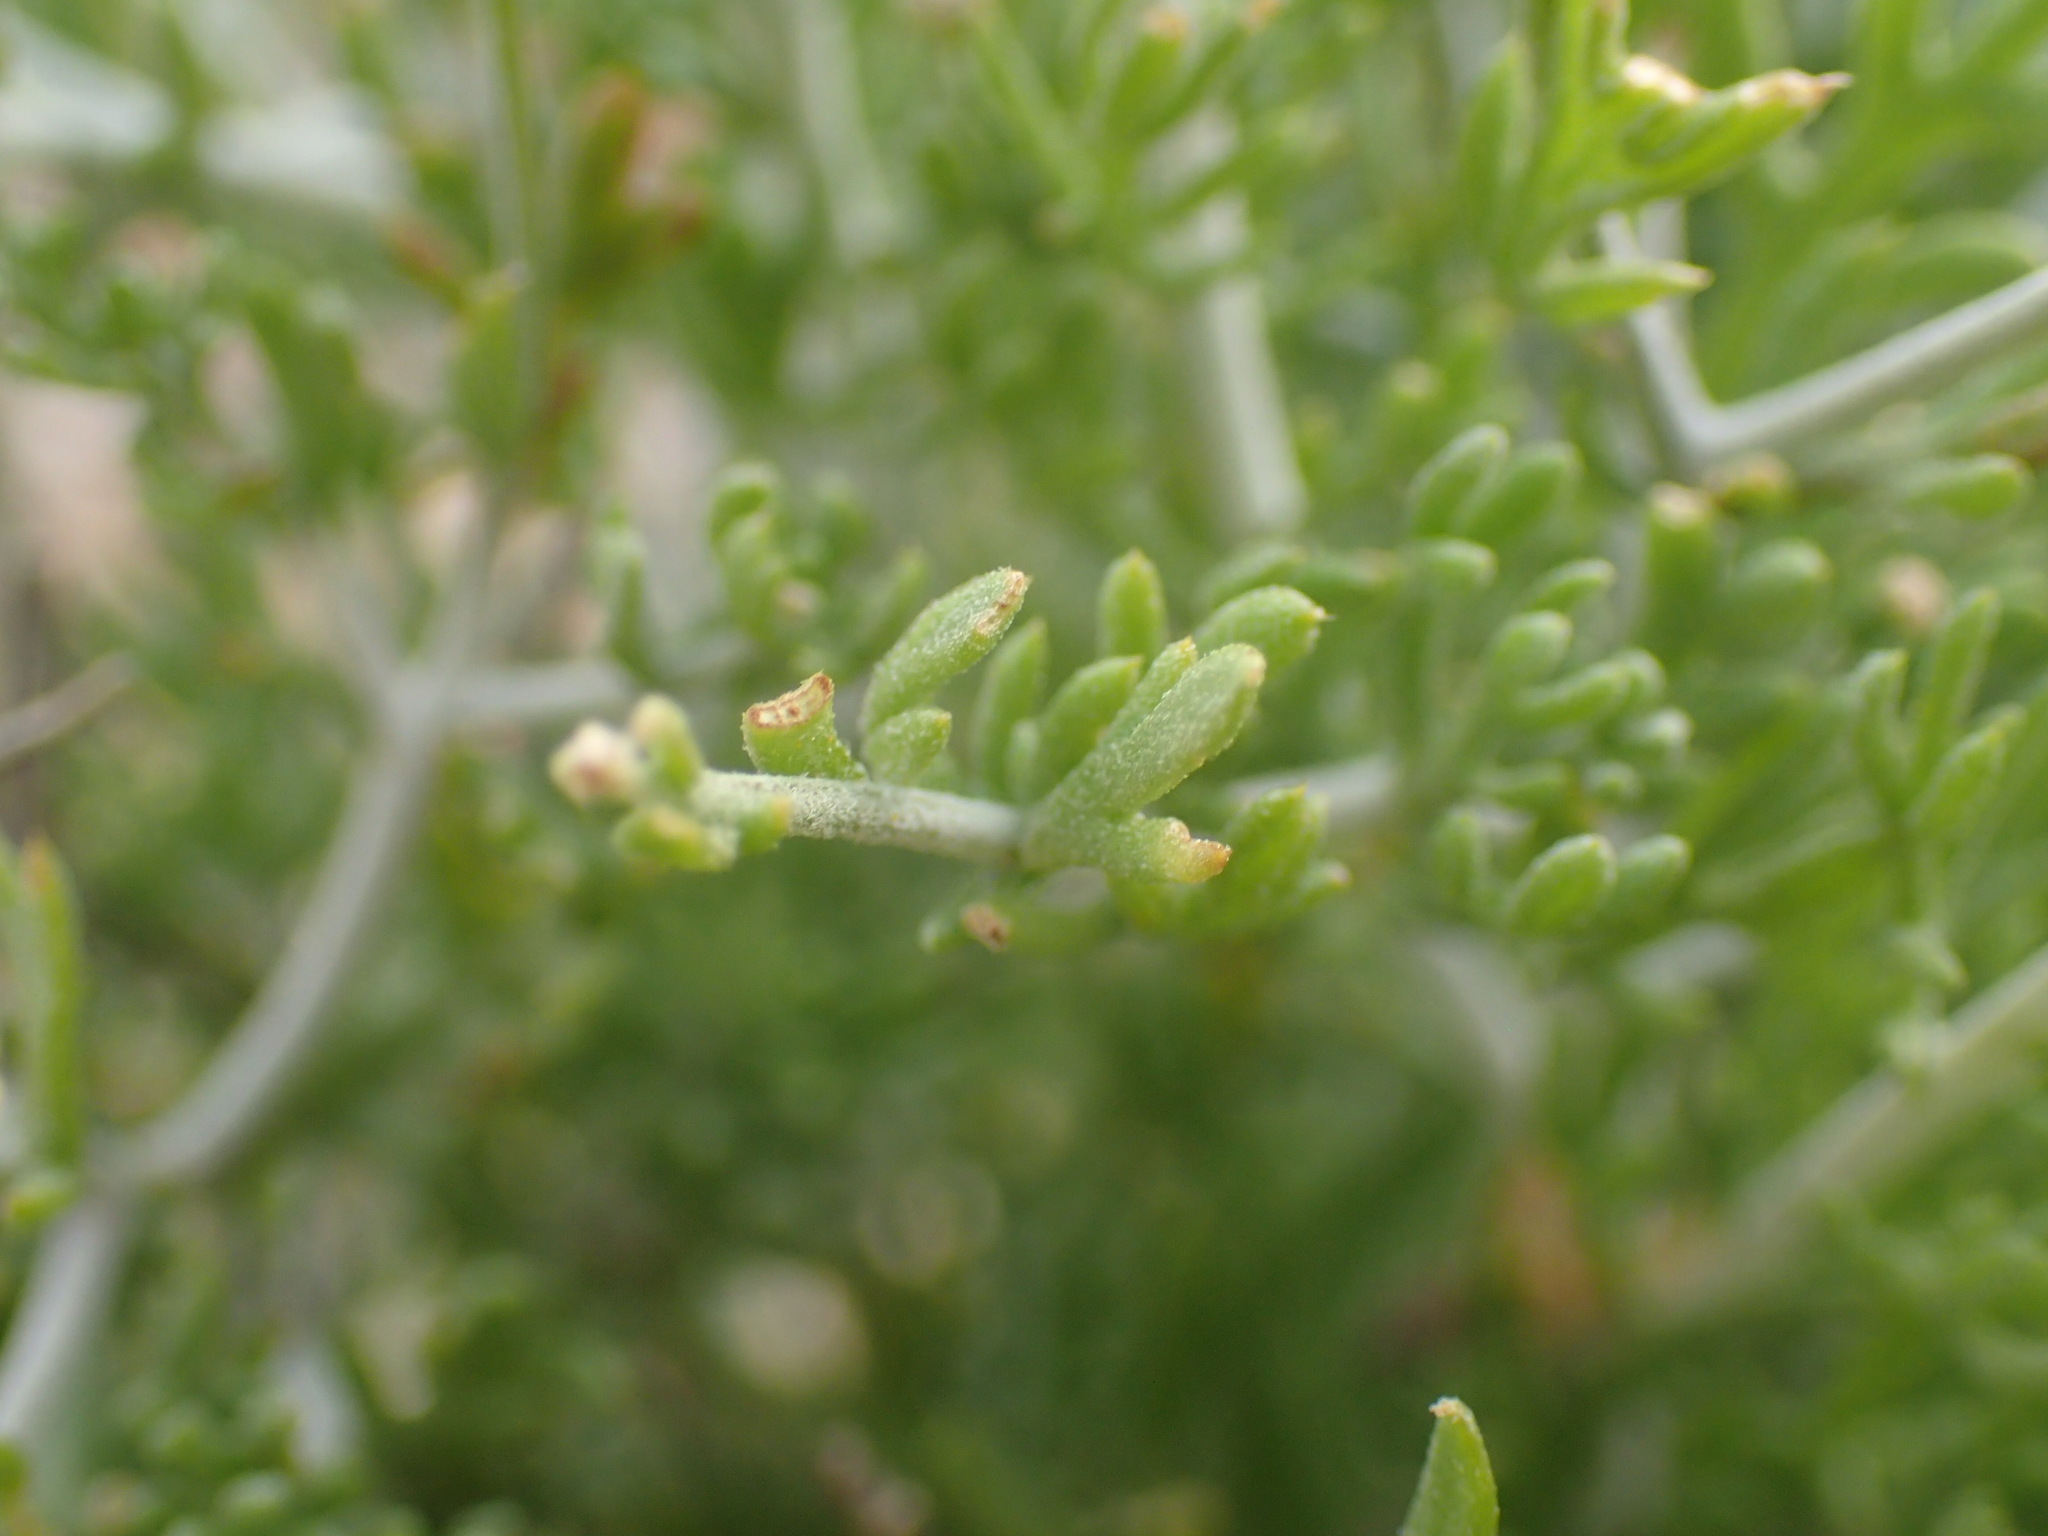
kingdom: Plantae
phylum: Tracheophyta
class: Magnoliopsida
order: Asterales
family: Asteraceae
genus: Pentzia
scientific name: Pentzia spinescens
